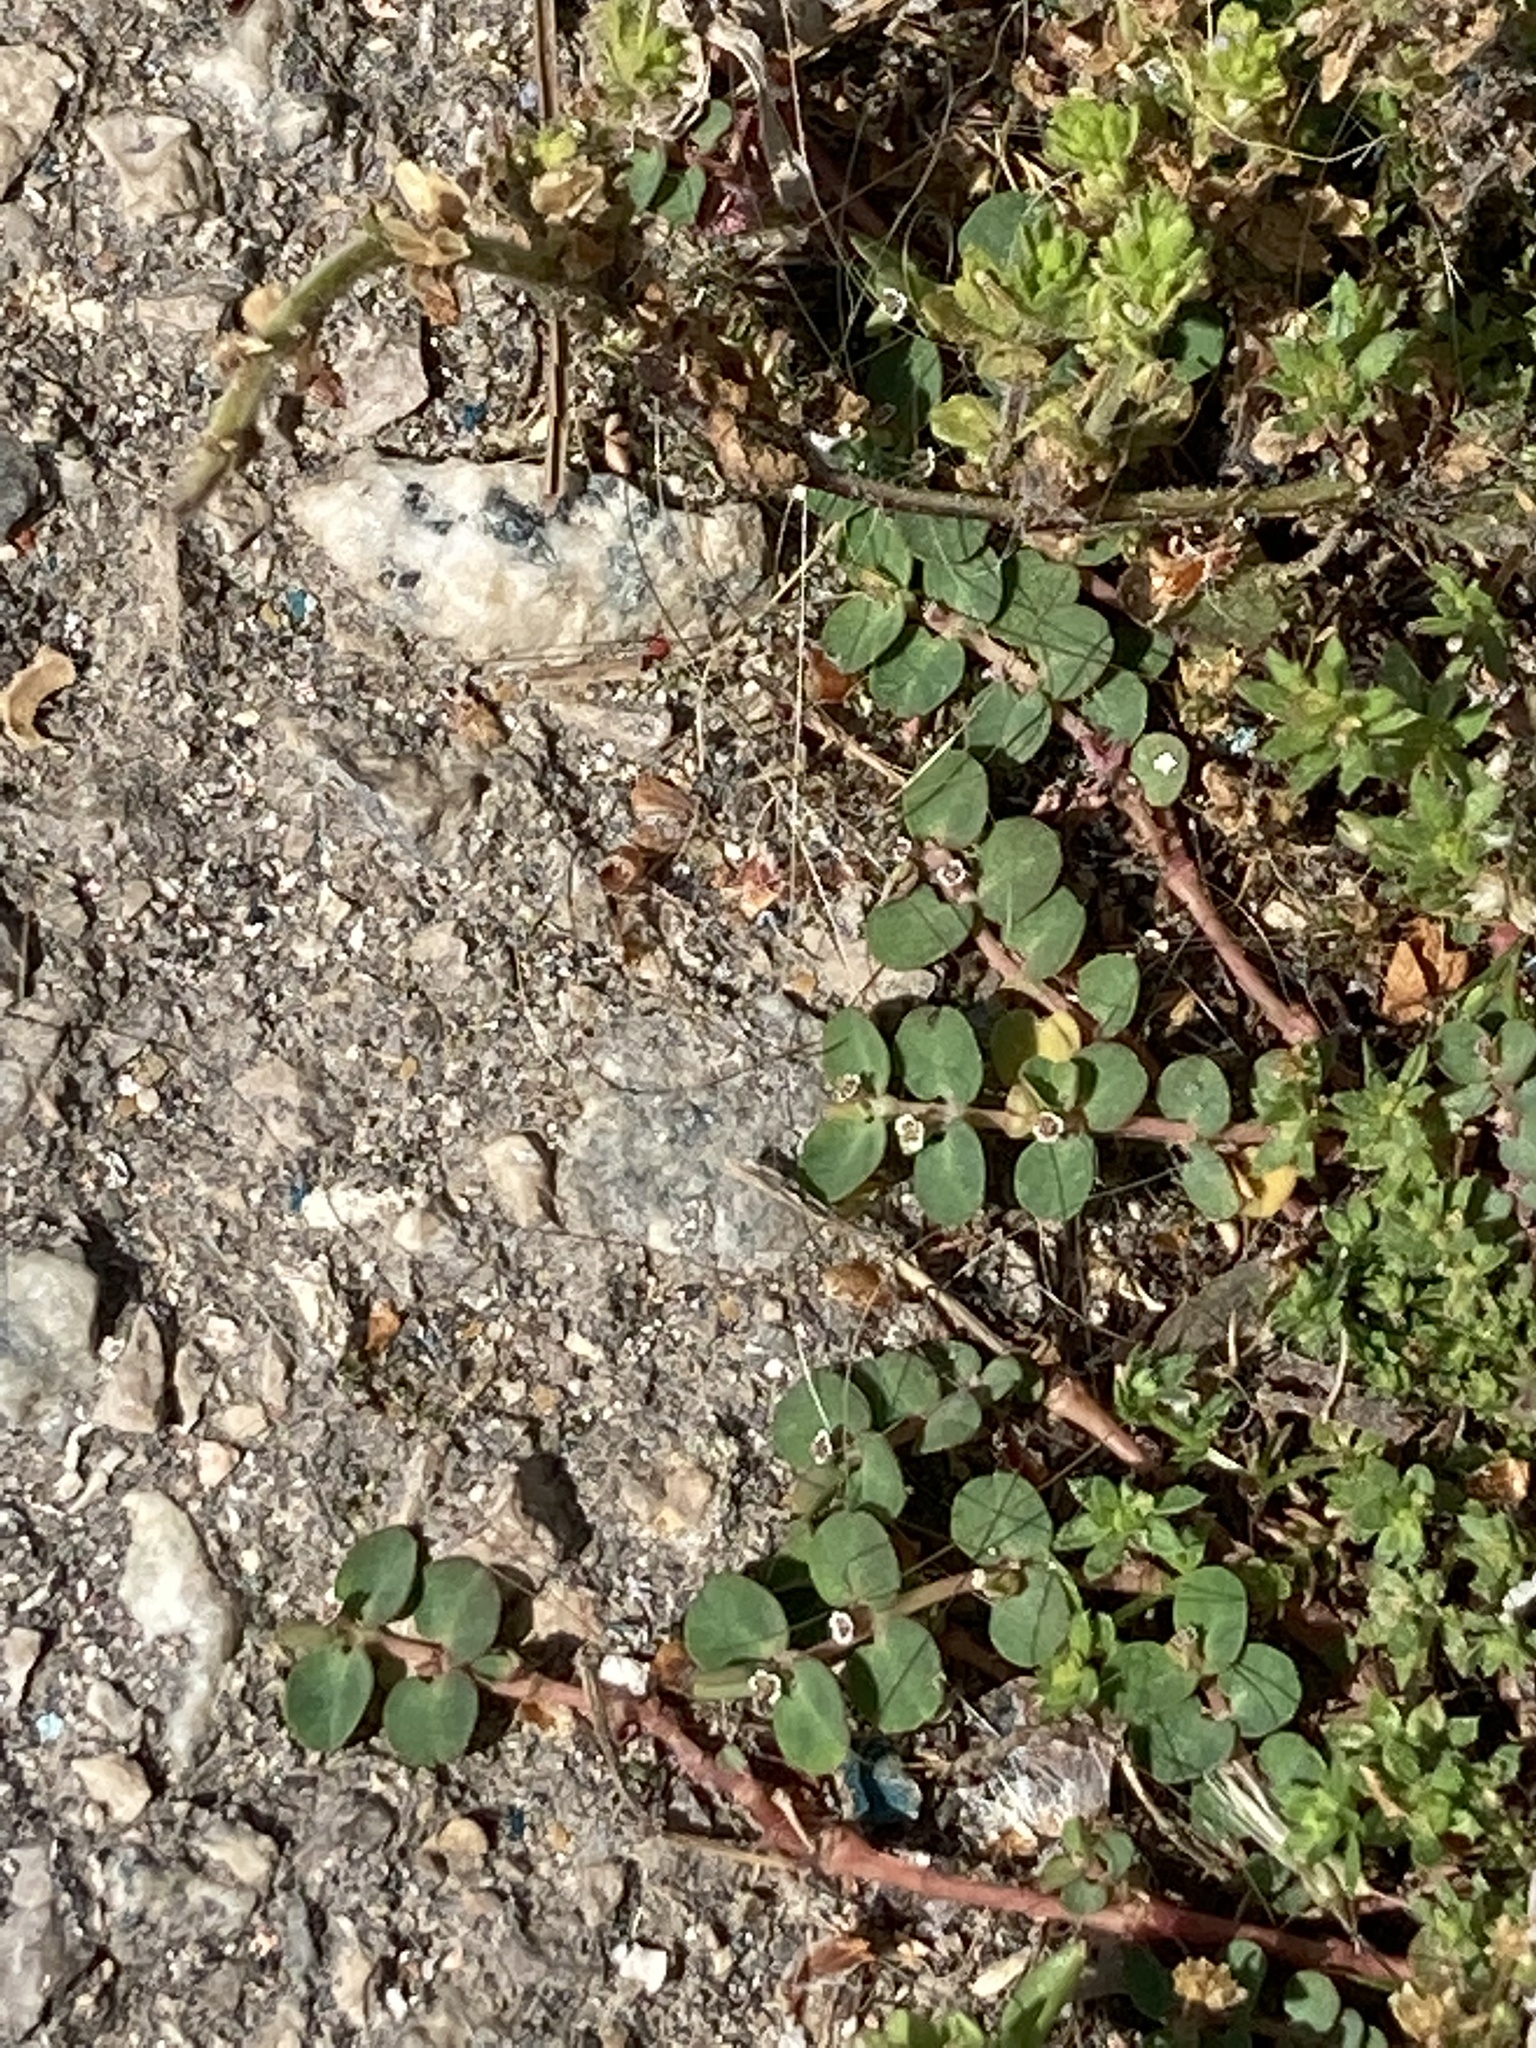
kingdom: Plantae
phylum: Tracheophyta
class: Magnoliopsida
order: Malpighiales
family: Euphorbiaceae
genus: Euphorbia
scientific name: Euphorbia serpens
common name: Matted sandmat
